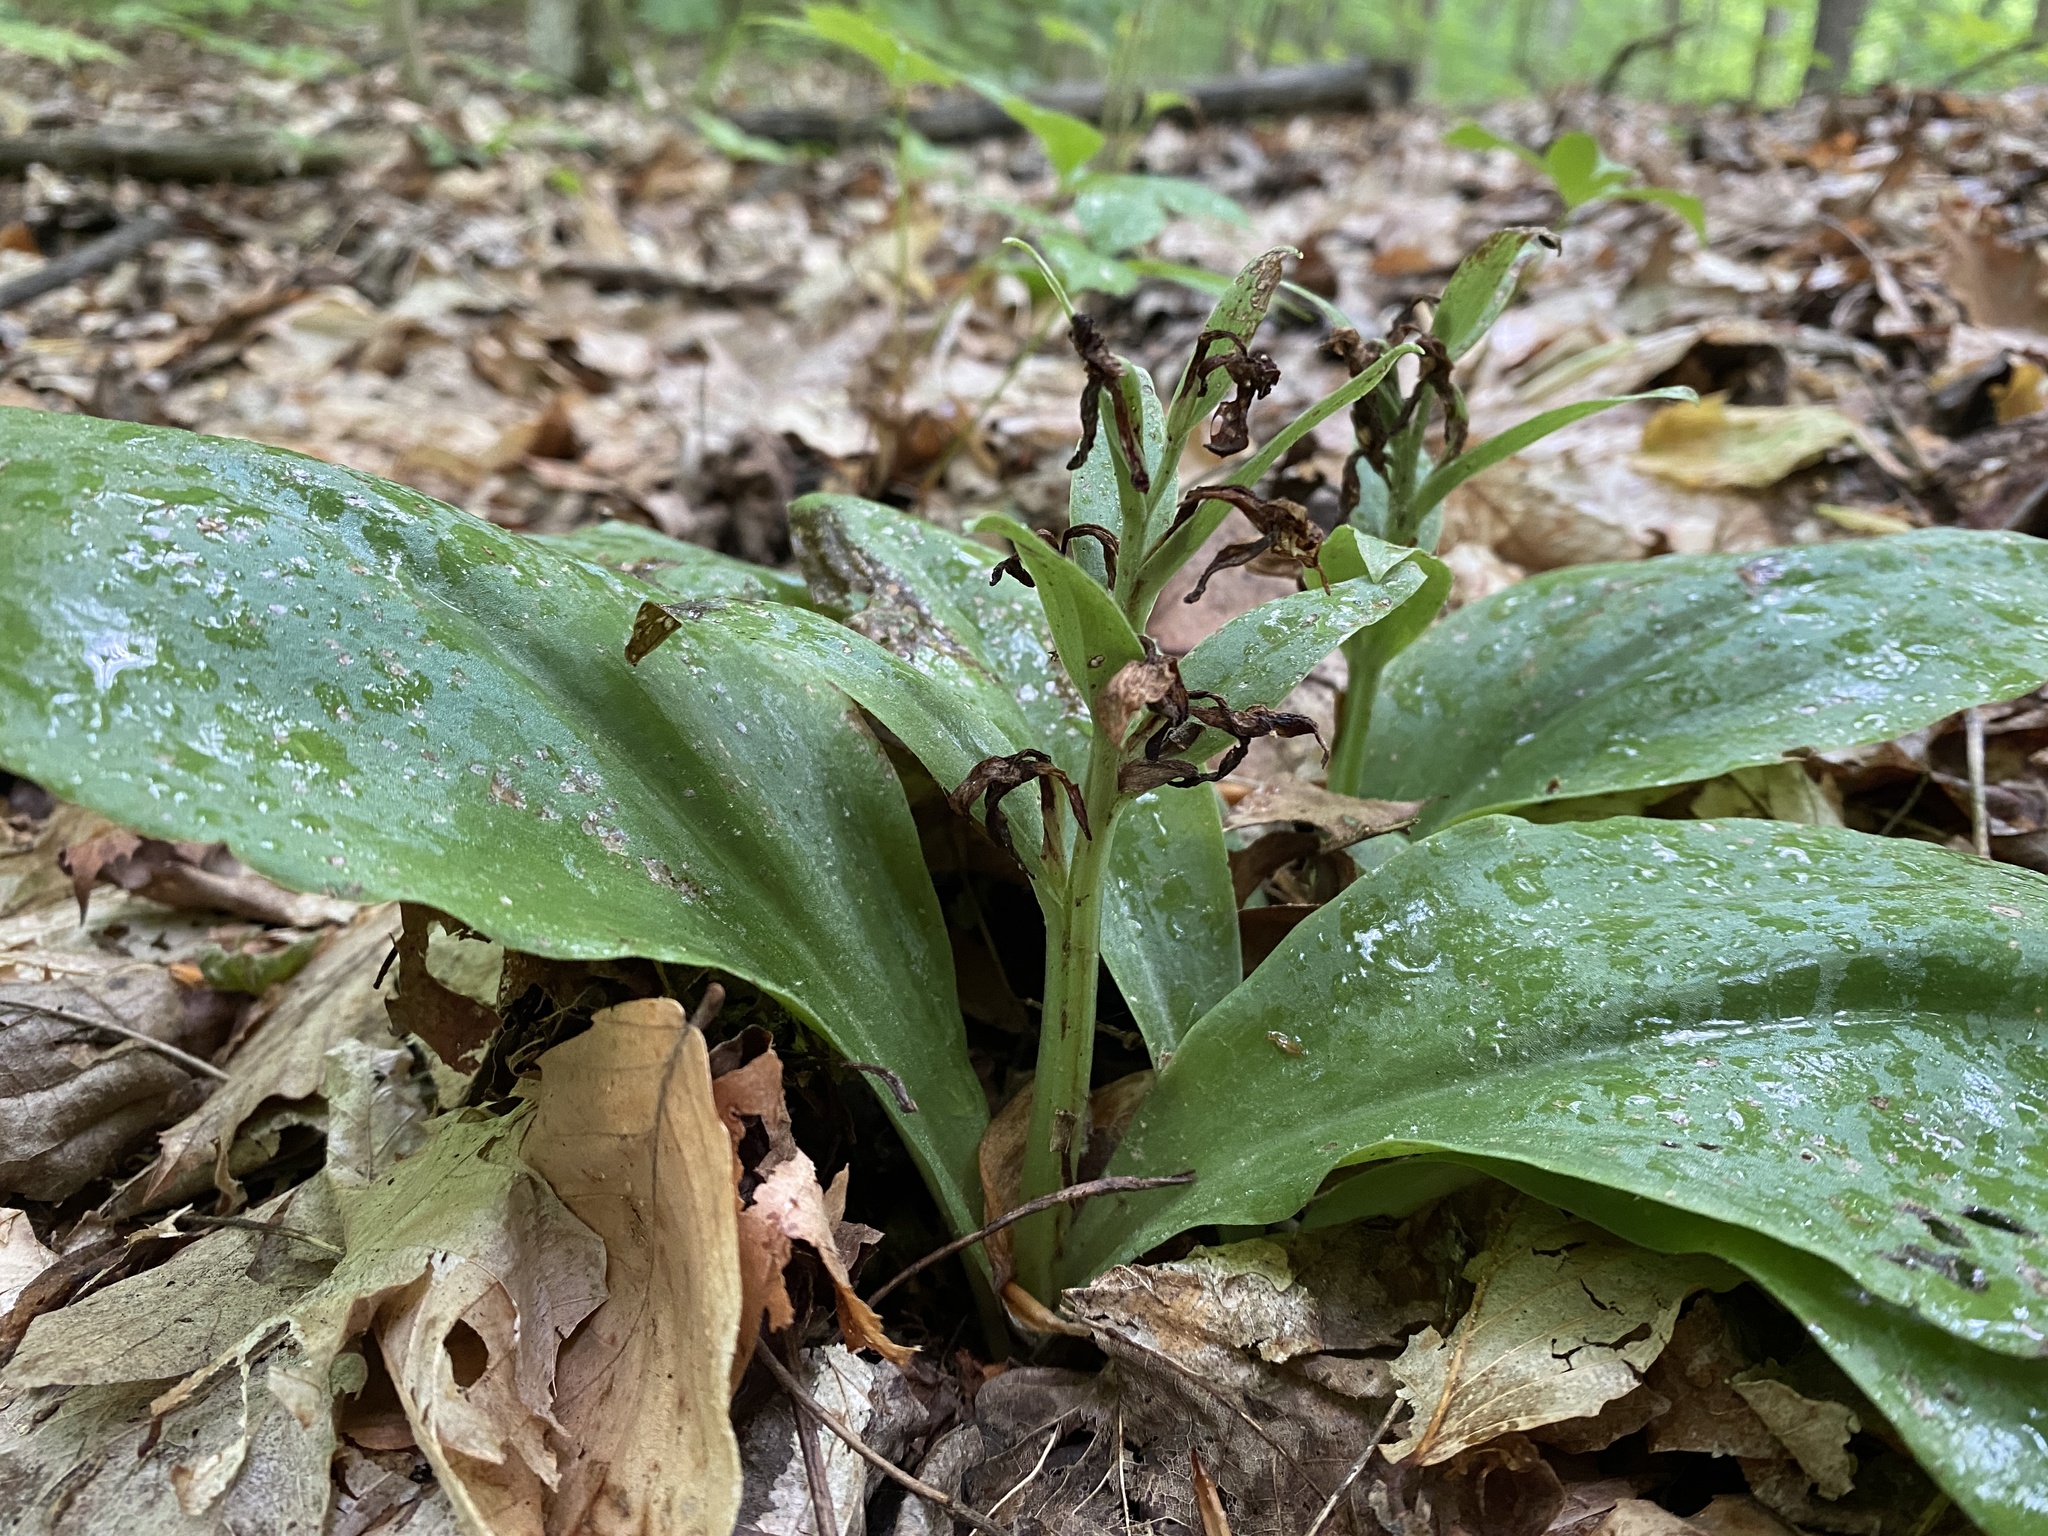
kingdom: Plantae
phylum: Tracheophyta
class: Liliopsida
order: Asparagales
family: Orchidaceae
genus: Galearis
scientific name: Galearis spectabilis
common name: Purple-hooded orchis
